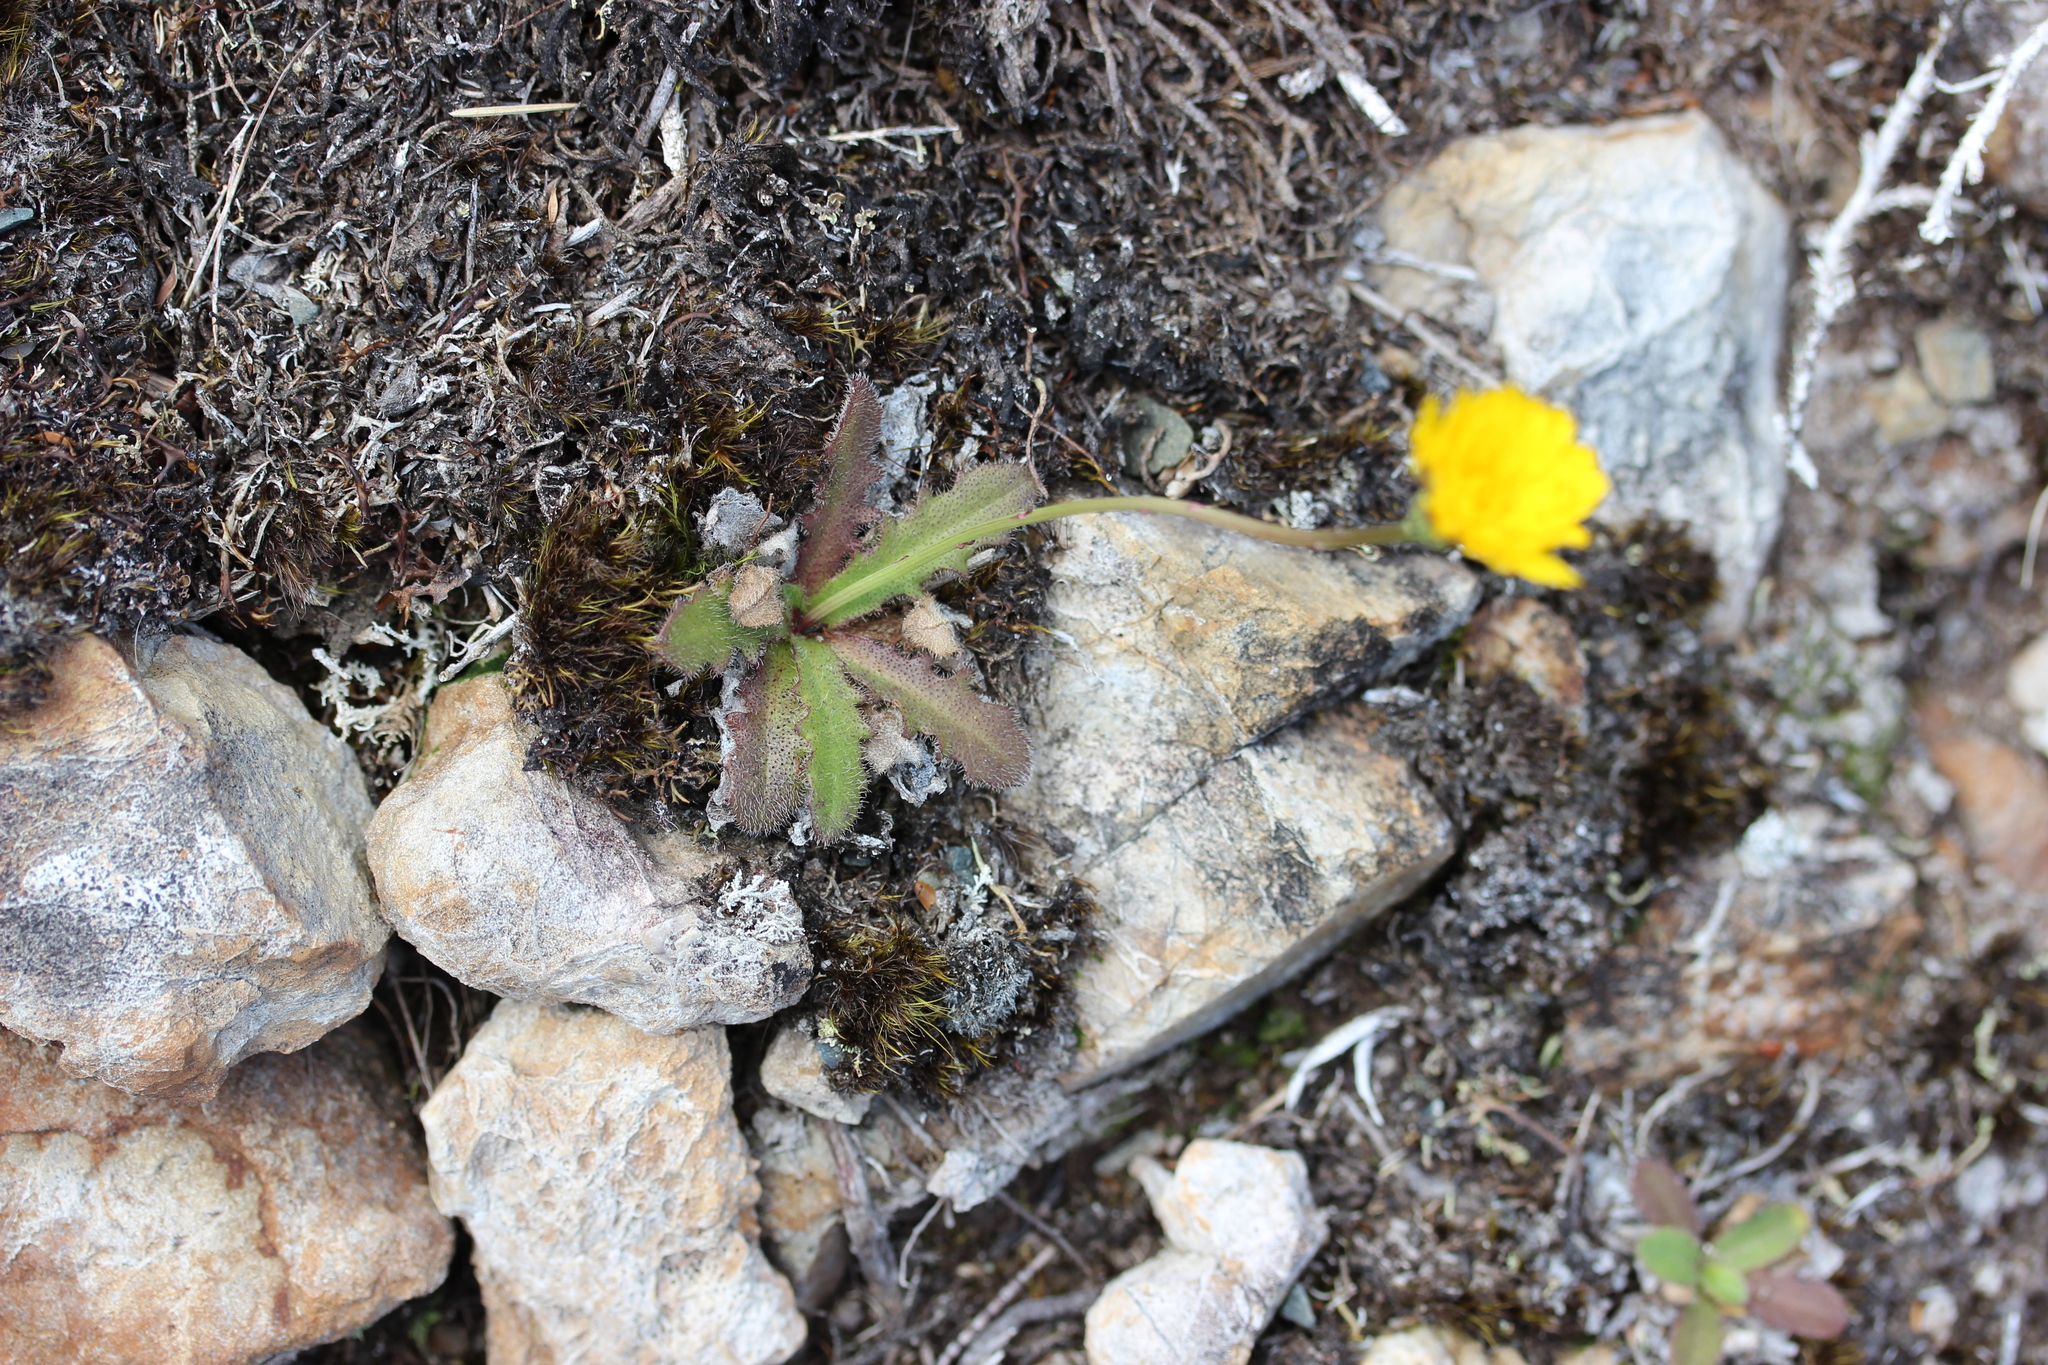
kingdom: Plantae
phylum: Tracheophyta
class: Magnoliopsida
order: Asterales
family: Asteraceae
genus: Hypochaeris
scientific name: Hypochaeris radicata
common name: Flatweed
